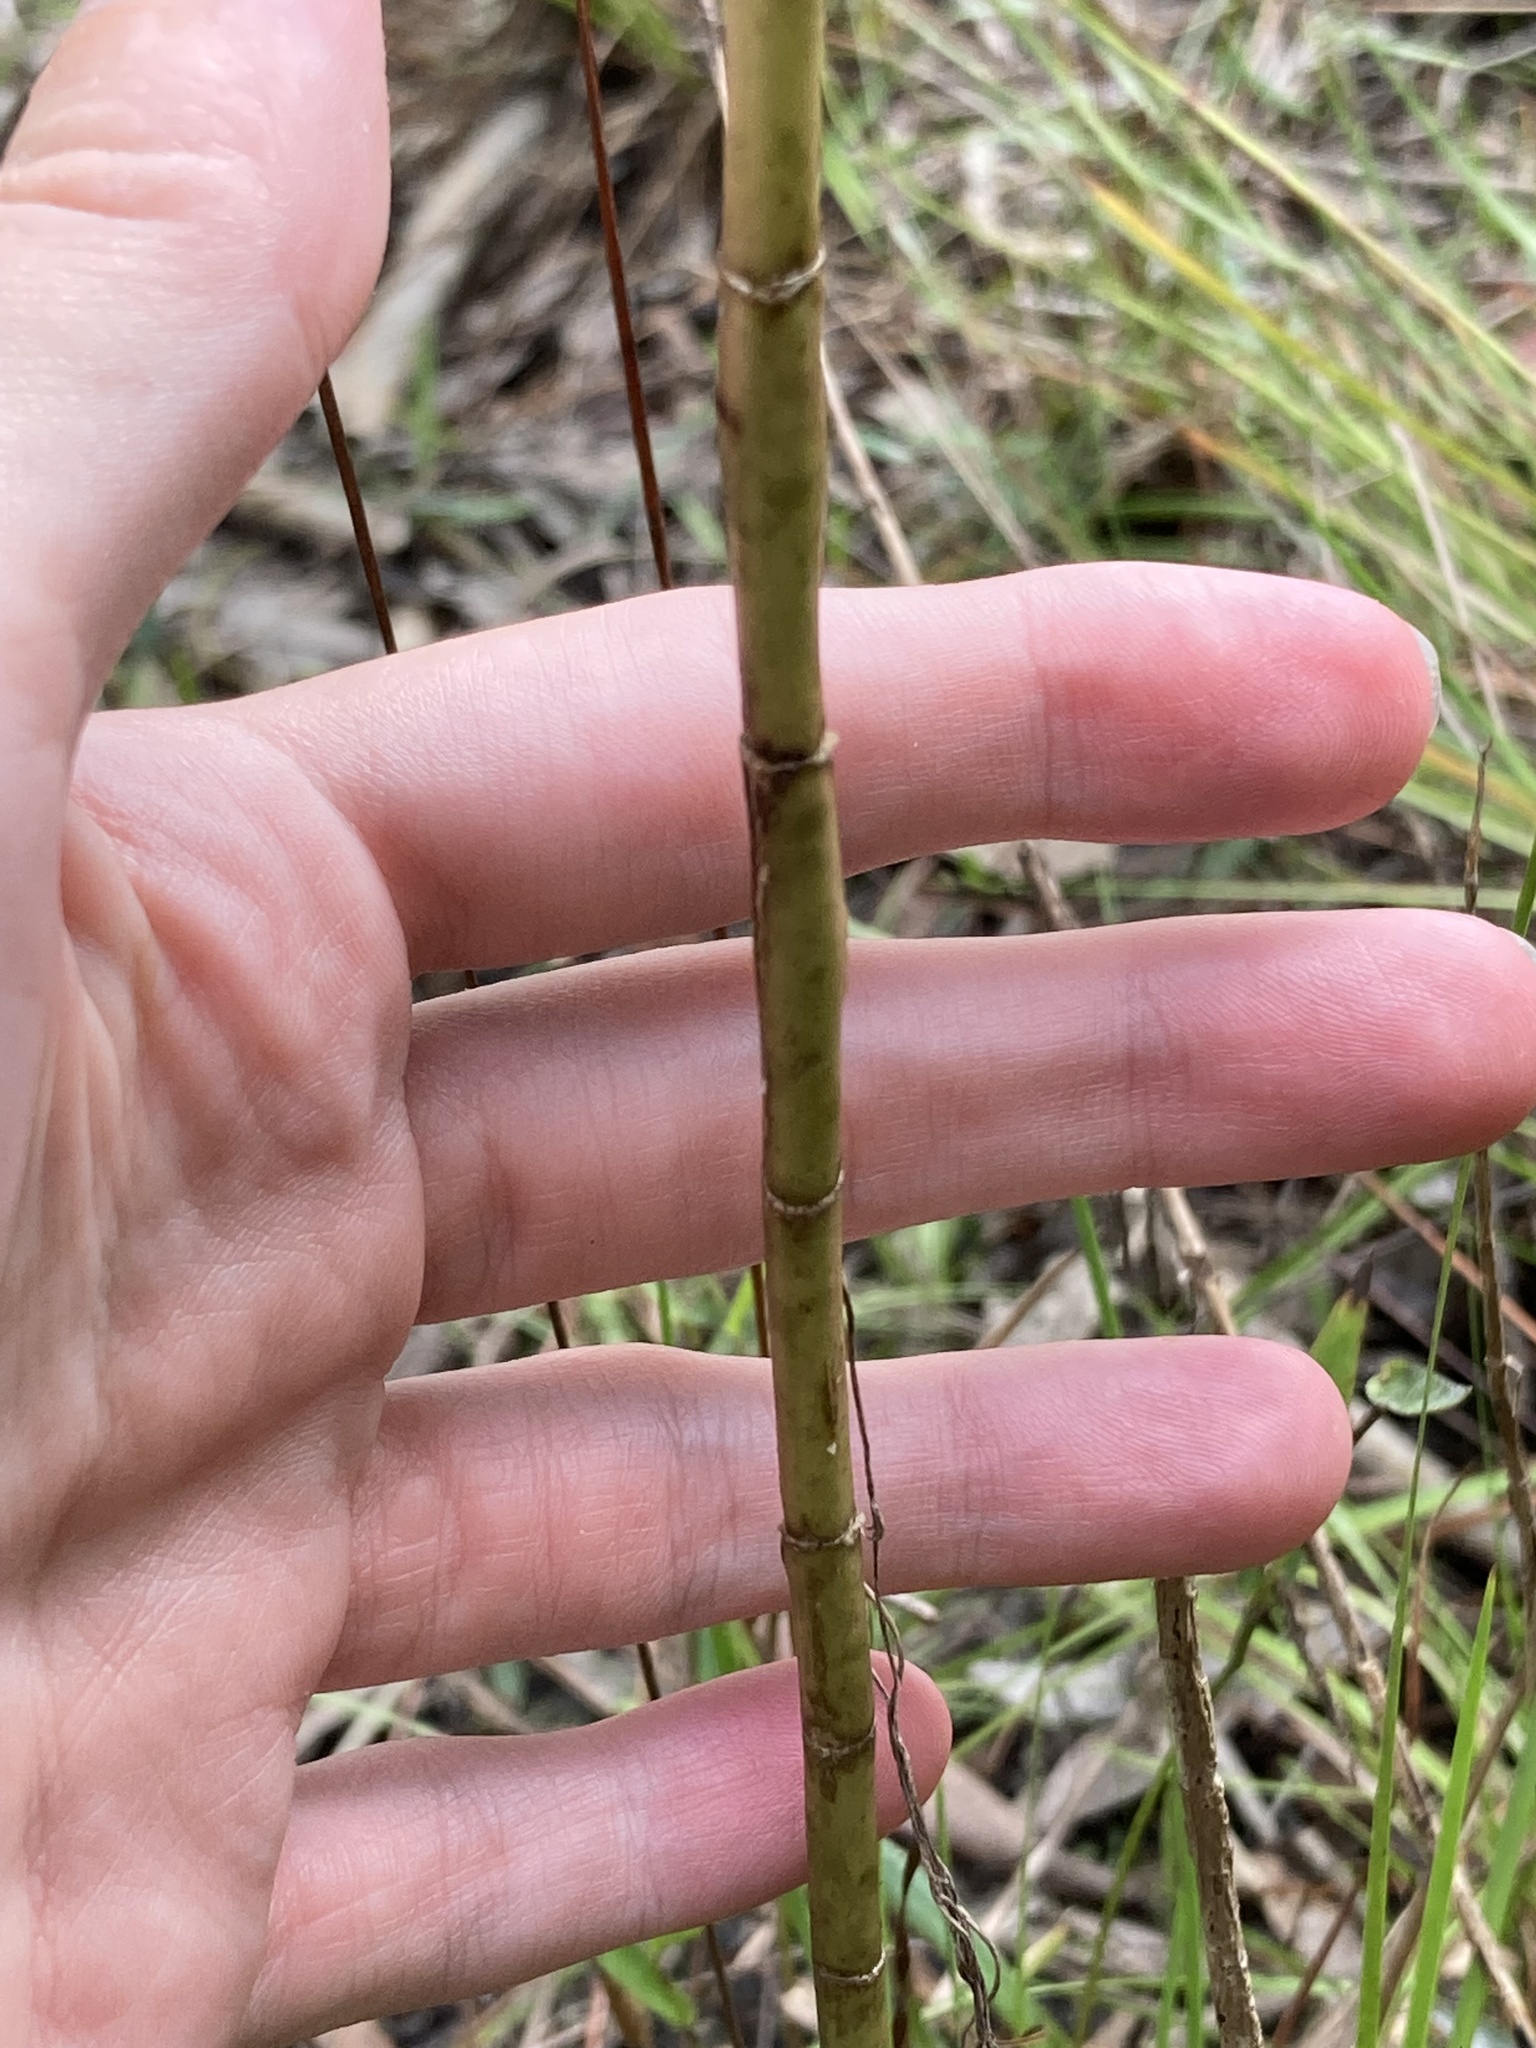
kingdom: Plantae
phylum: Tracheophyta
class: Magnoliopsida
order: Asterales
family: Asteraceae
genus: Eupatorium
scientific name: Eupatorium leptophyllum
